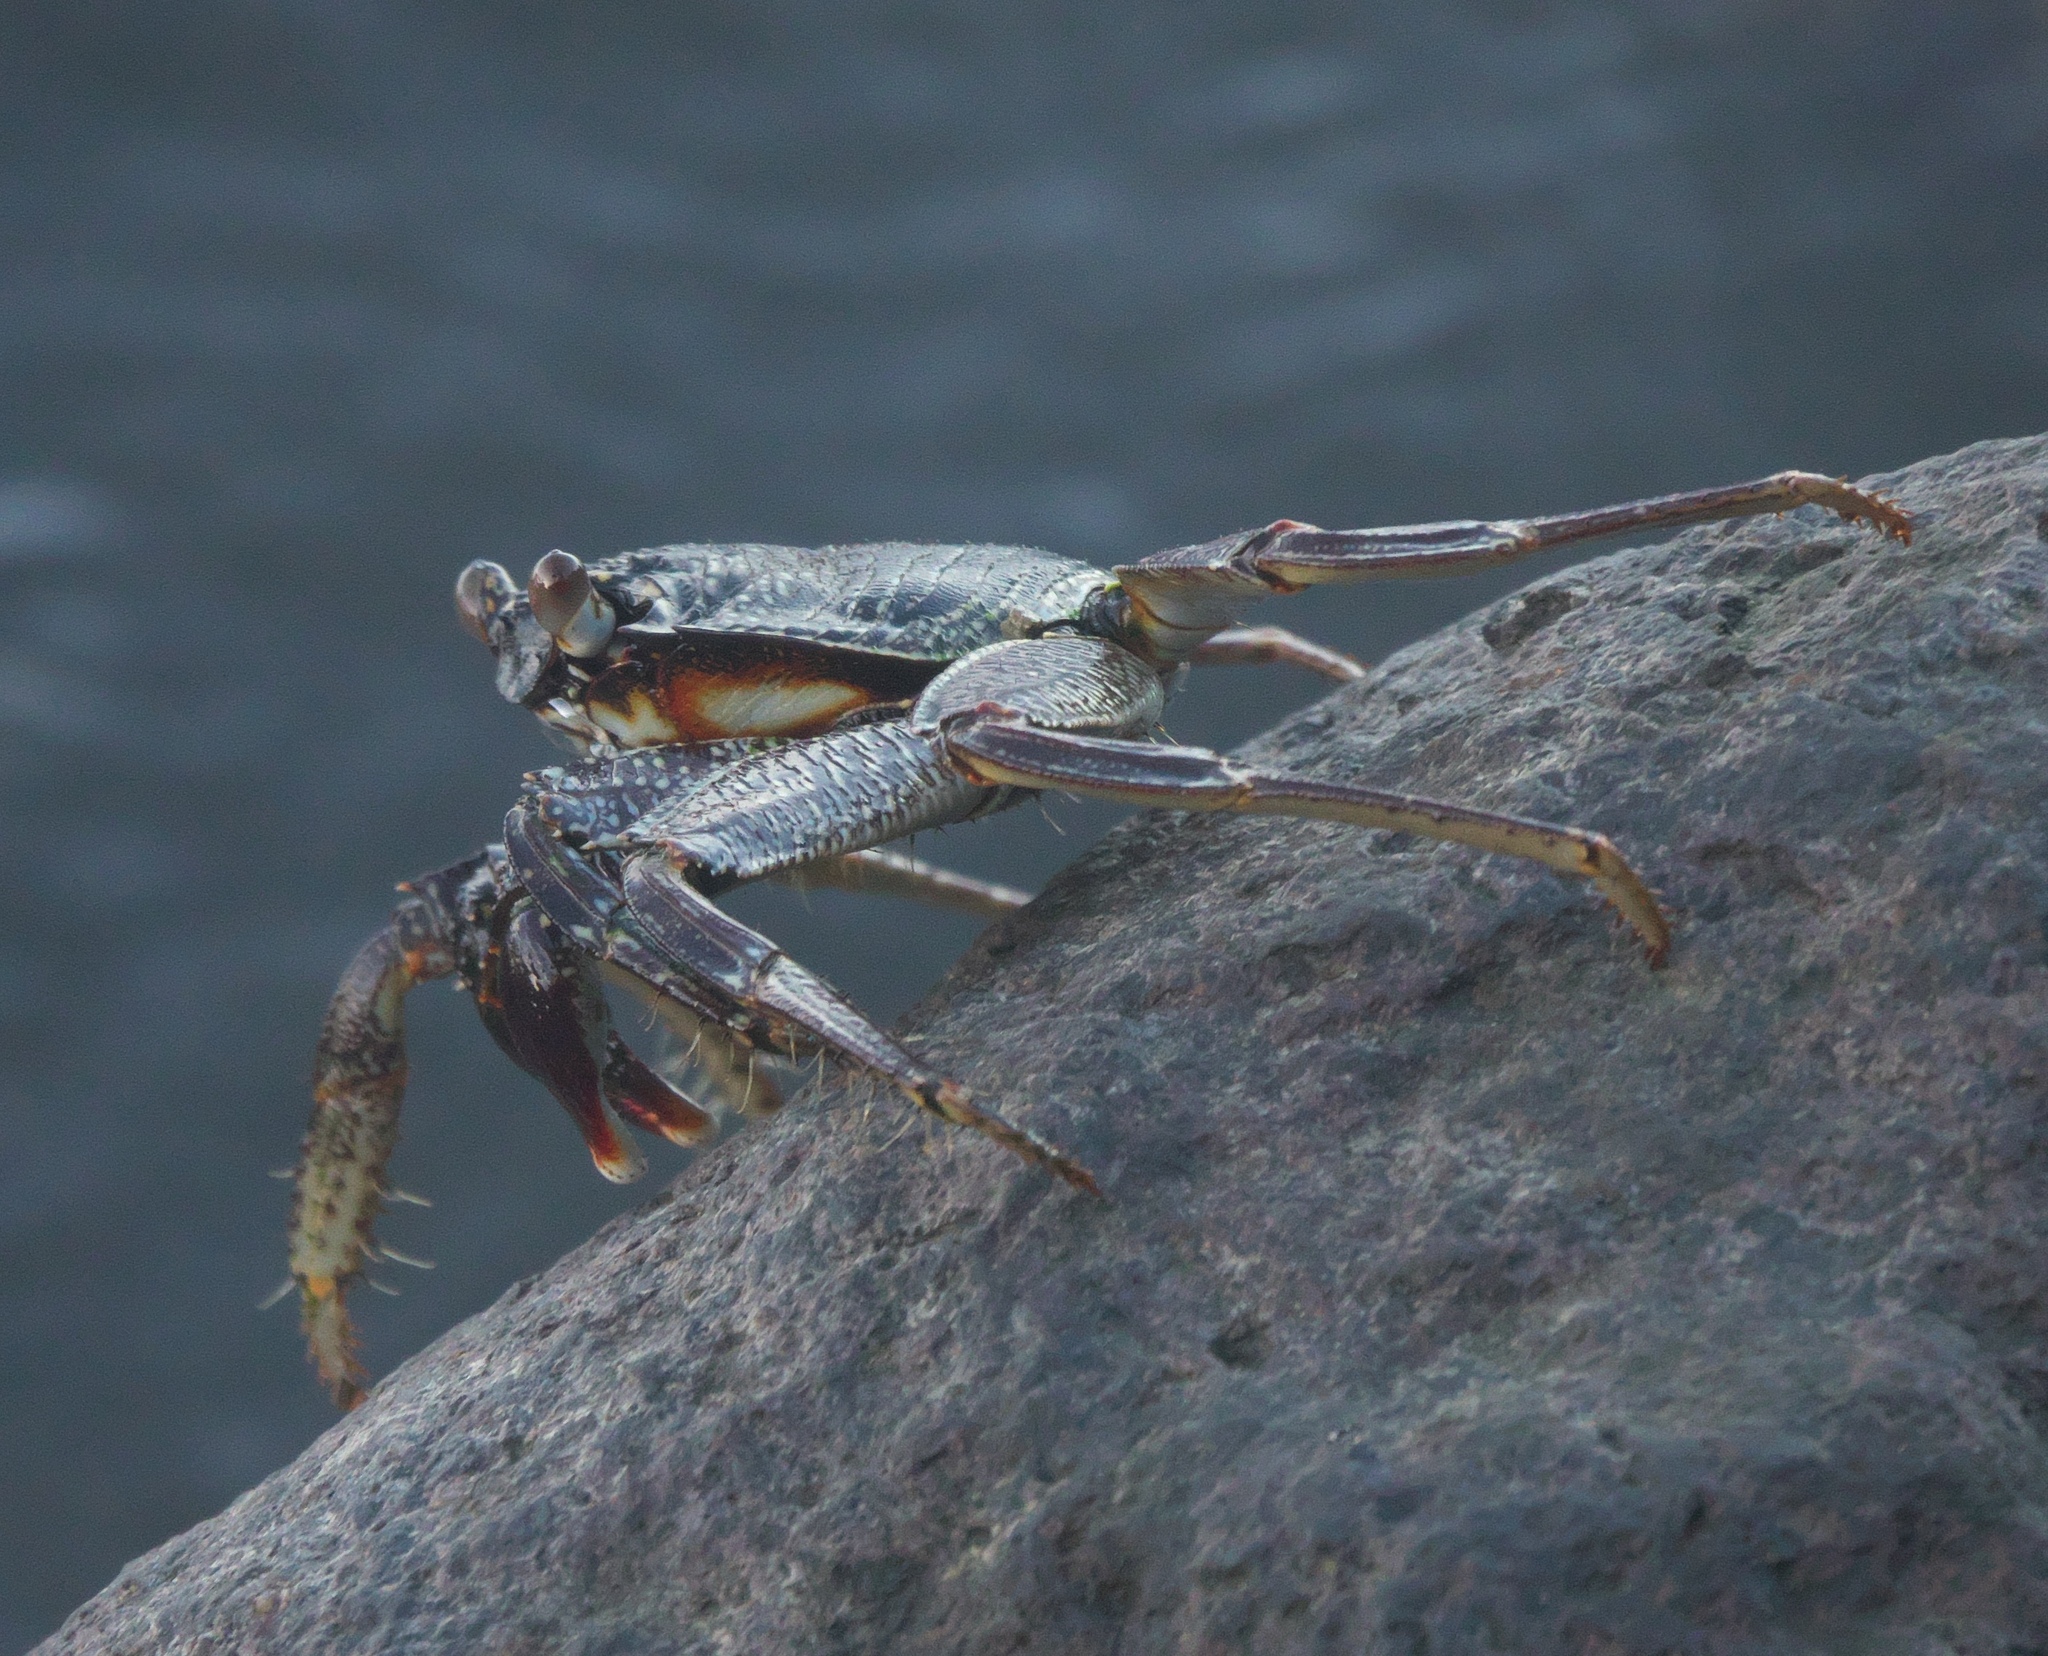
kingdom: Animalia
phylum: Arthropoda
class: Malacostraca
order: Decapoda
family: Grapsidae
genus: Grapsus
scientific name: Grapsus tenuicrustatus
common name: Natal lightfoot crab
